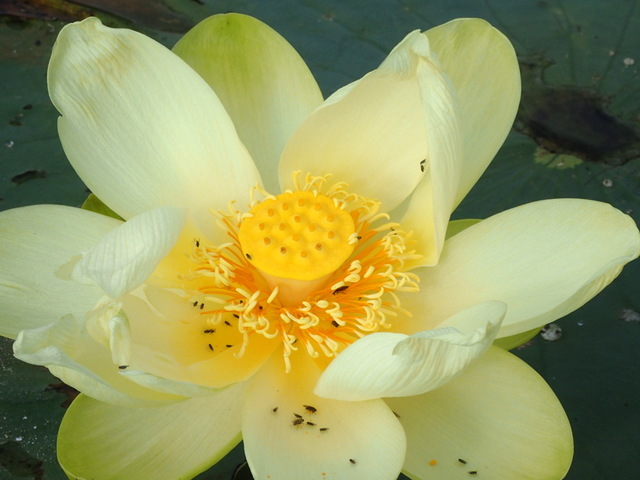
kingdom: Plantae
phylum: Tracheophyta
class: Magnoliopsida
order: Proteales
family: Nelumbonaceae
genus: Nelumbo
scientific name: Nelumbo lutea
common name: American lotus
